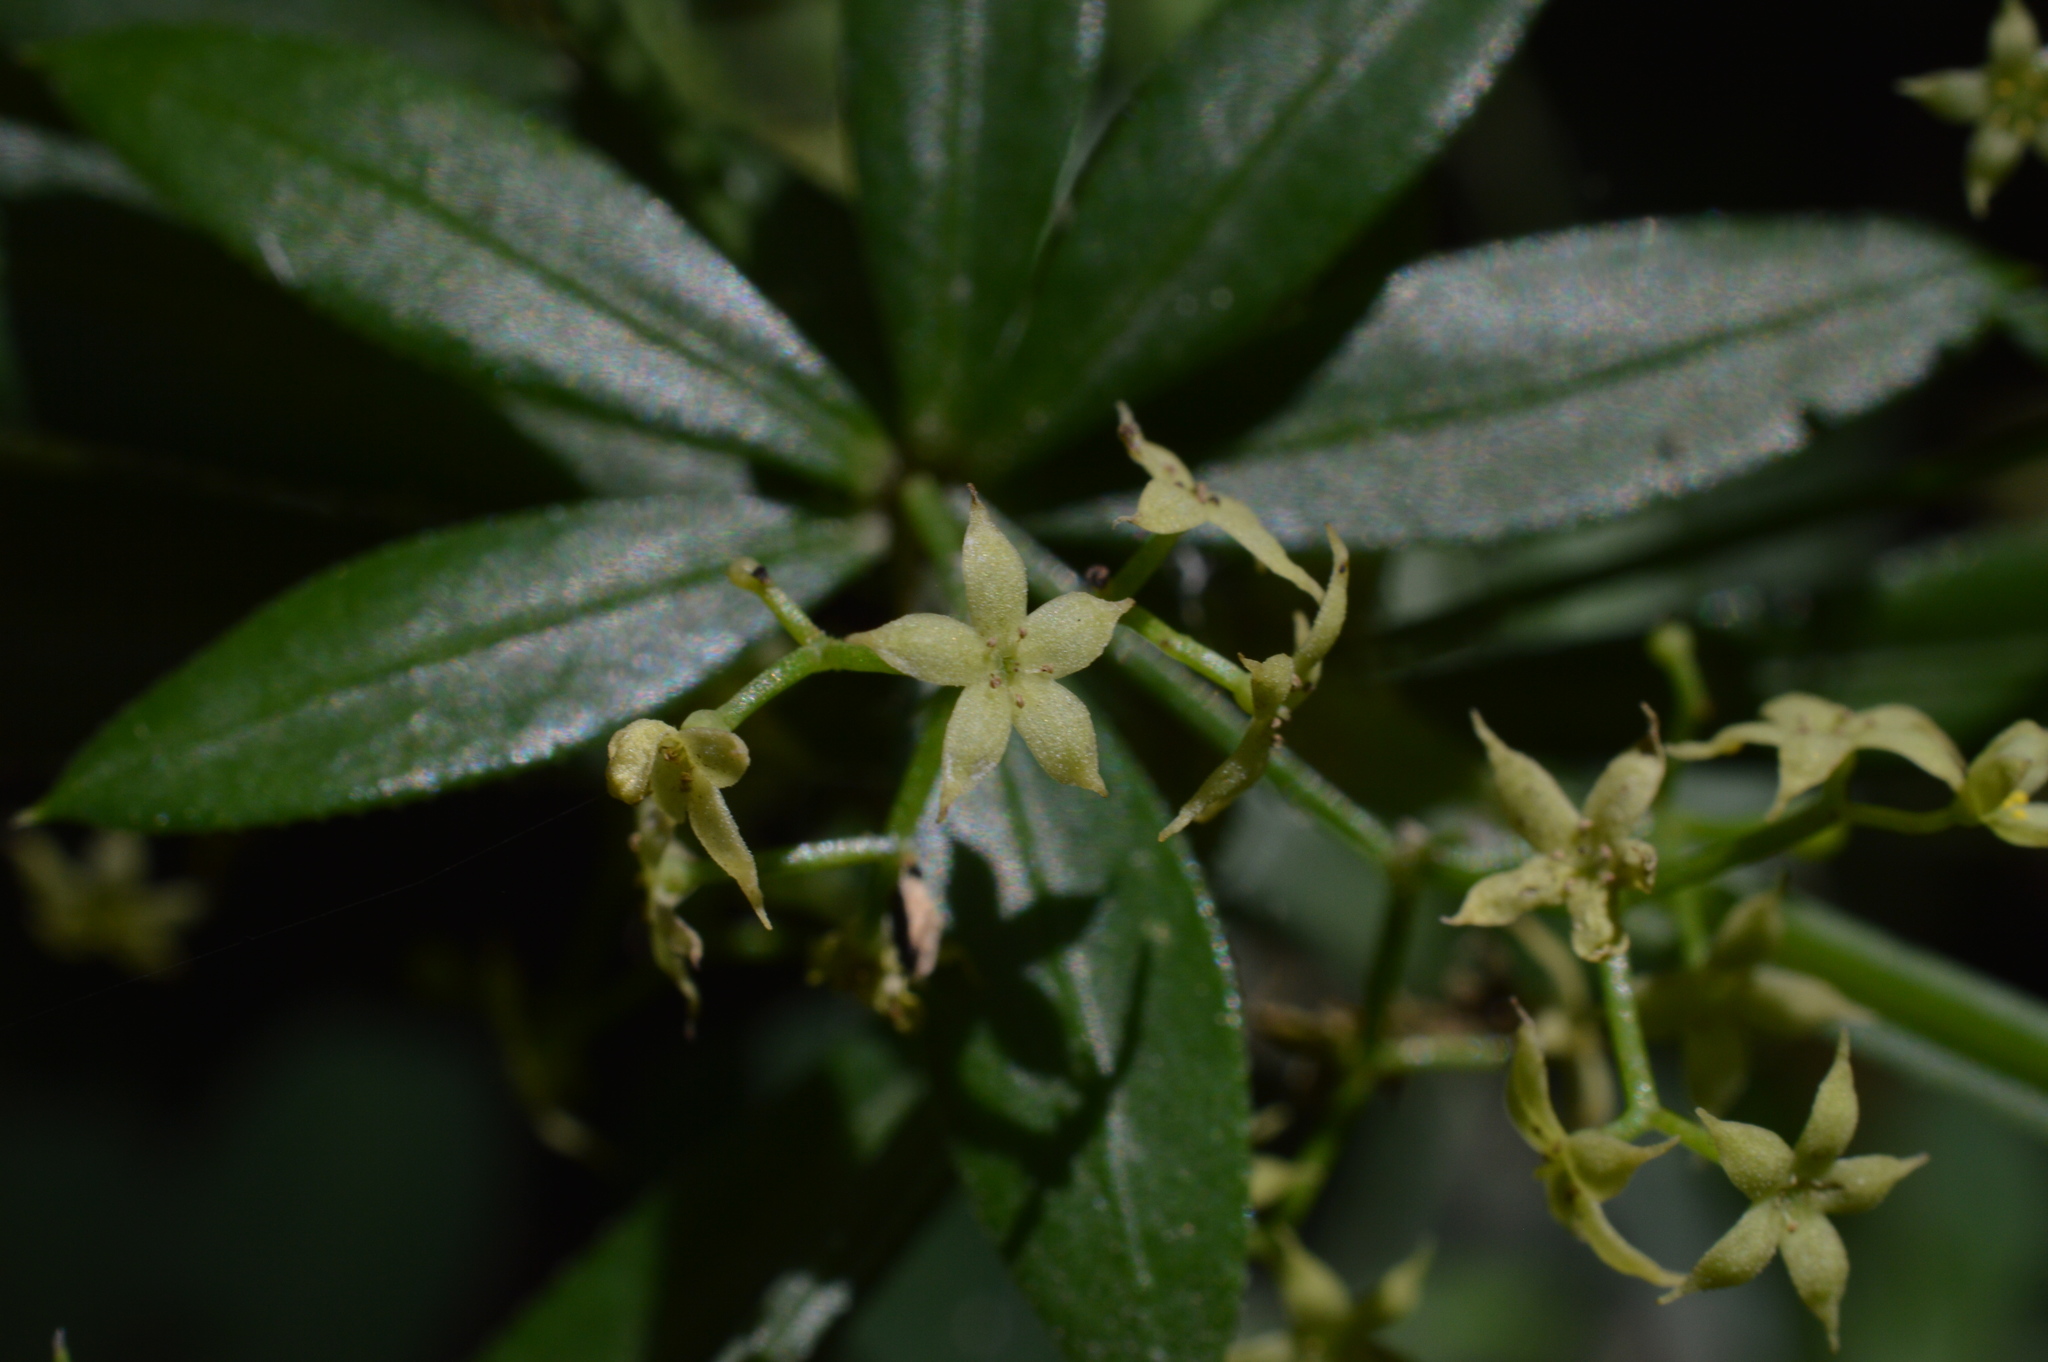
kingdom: Plantae
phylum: Tracheophyta
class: Magnoliopsida
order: Gentianales
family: Rubiaceae
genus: Rubia
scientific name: Rubia peregrina
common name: Wild madder
